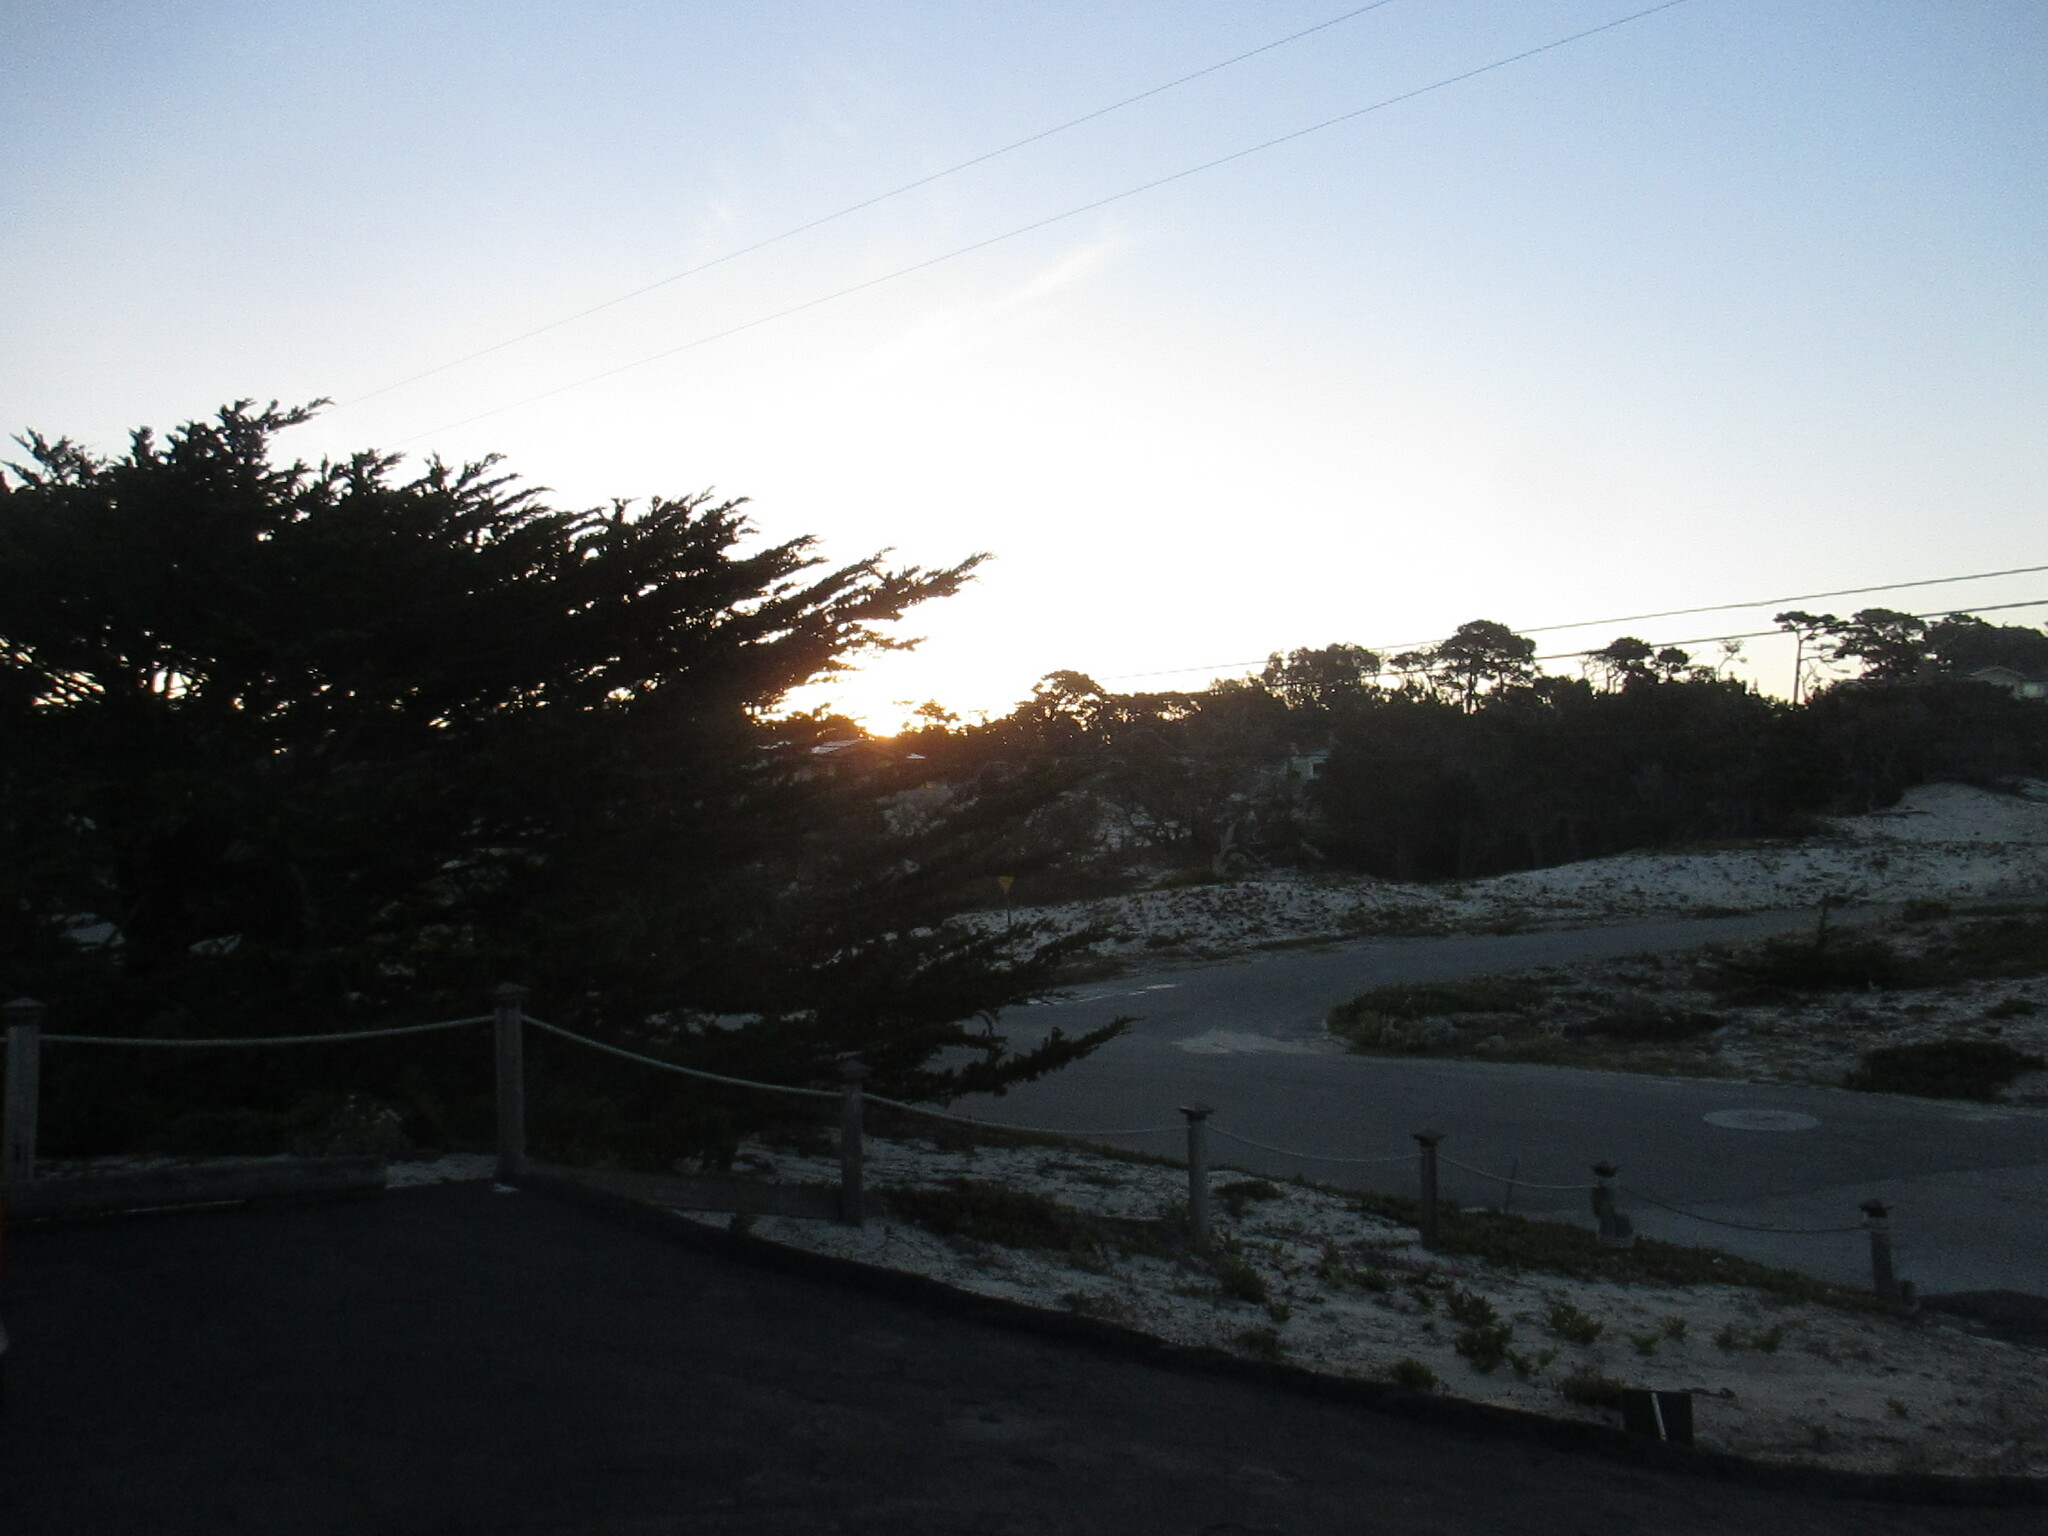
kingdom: Plantae
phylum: Tracheophyta
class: Pinopsida
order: Pinales
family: Cupressaceae
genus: Cupressus
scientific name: Cupressus macrocarpa
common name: Monterey cypress
